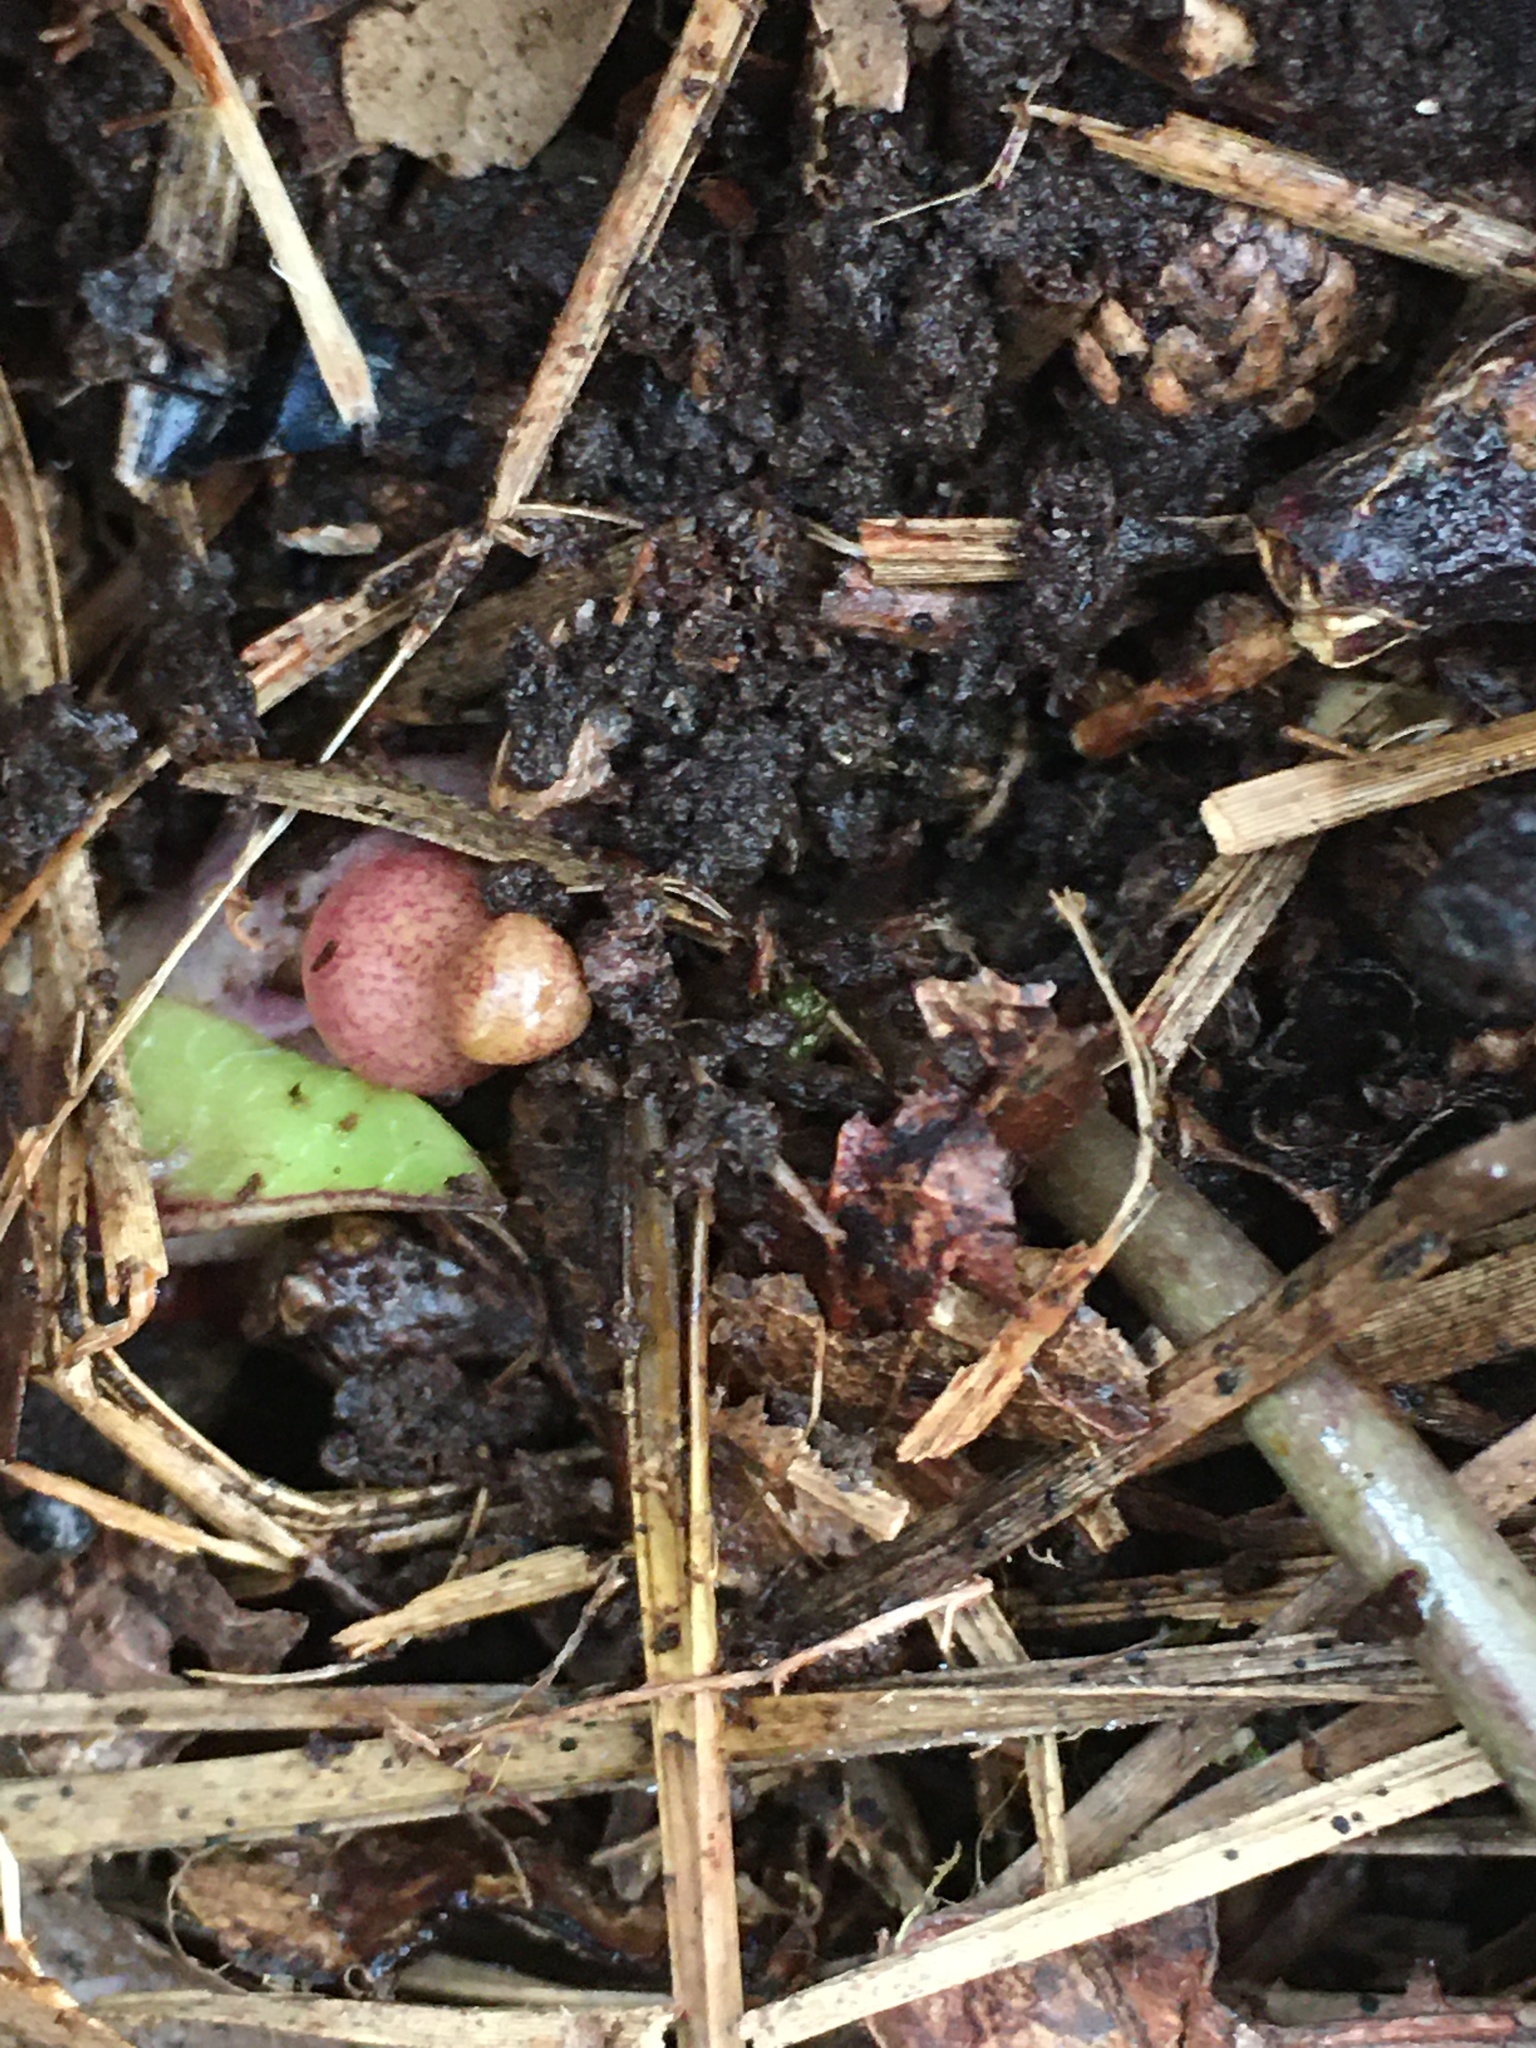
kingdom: Plantae
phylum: Tracheophyta
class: Magnoliopsida
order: Piperales
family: Aristolochiaceae
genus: Hexastylis
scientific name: Hexastylis arifolia
